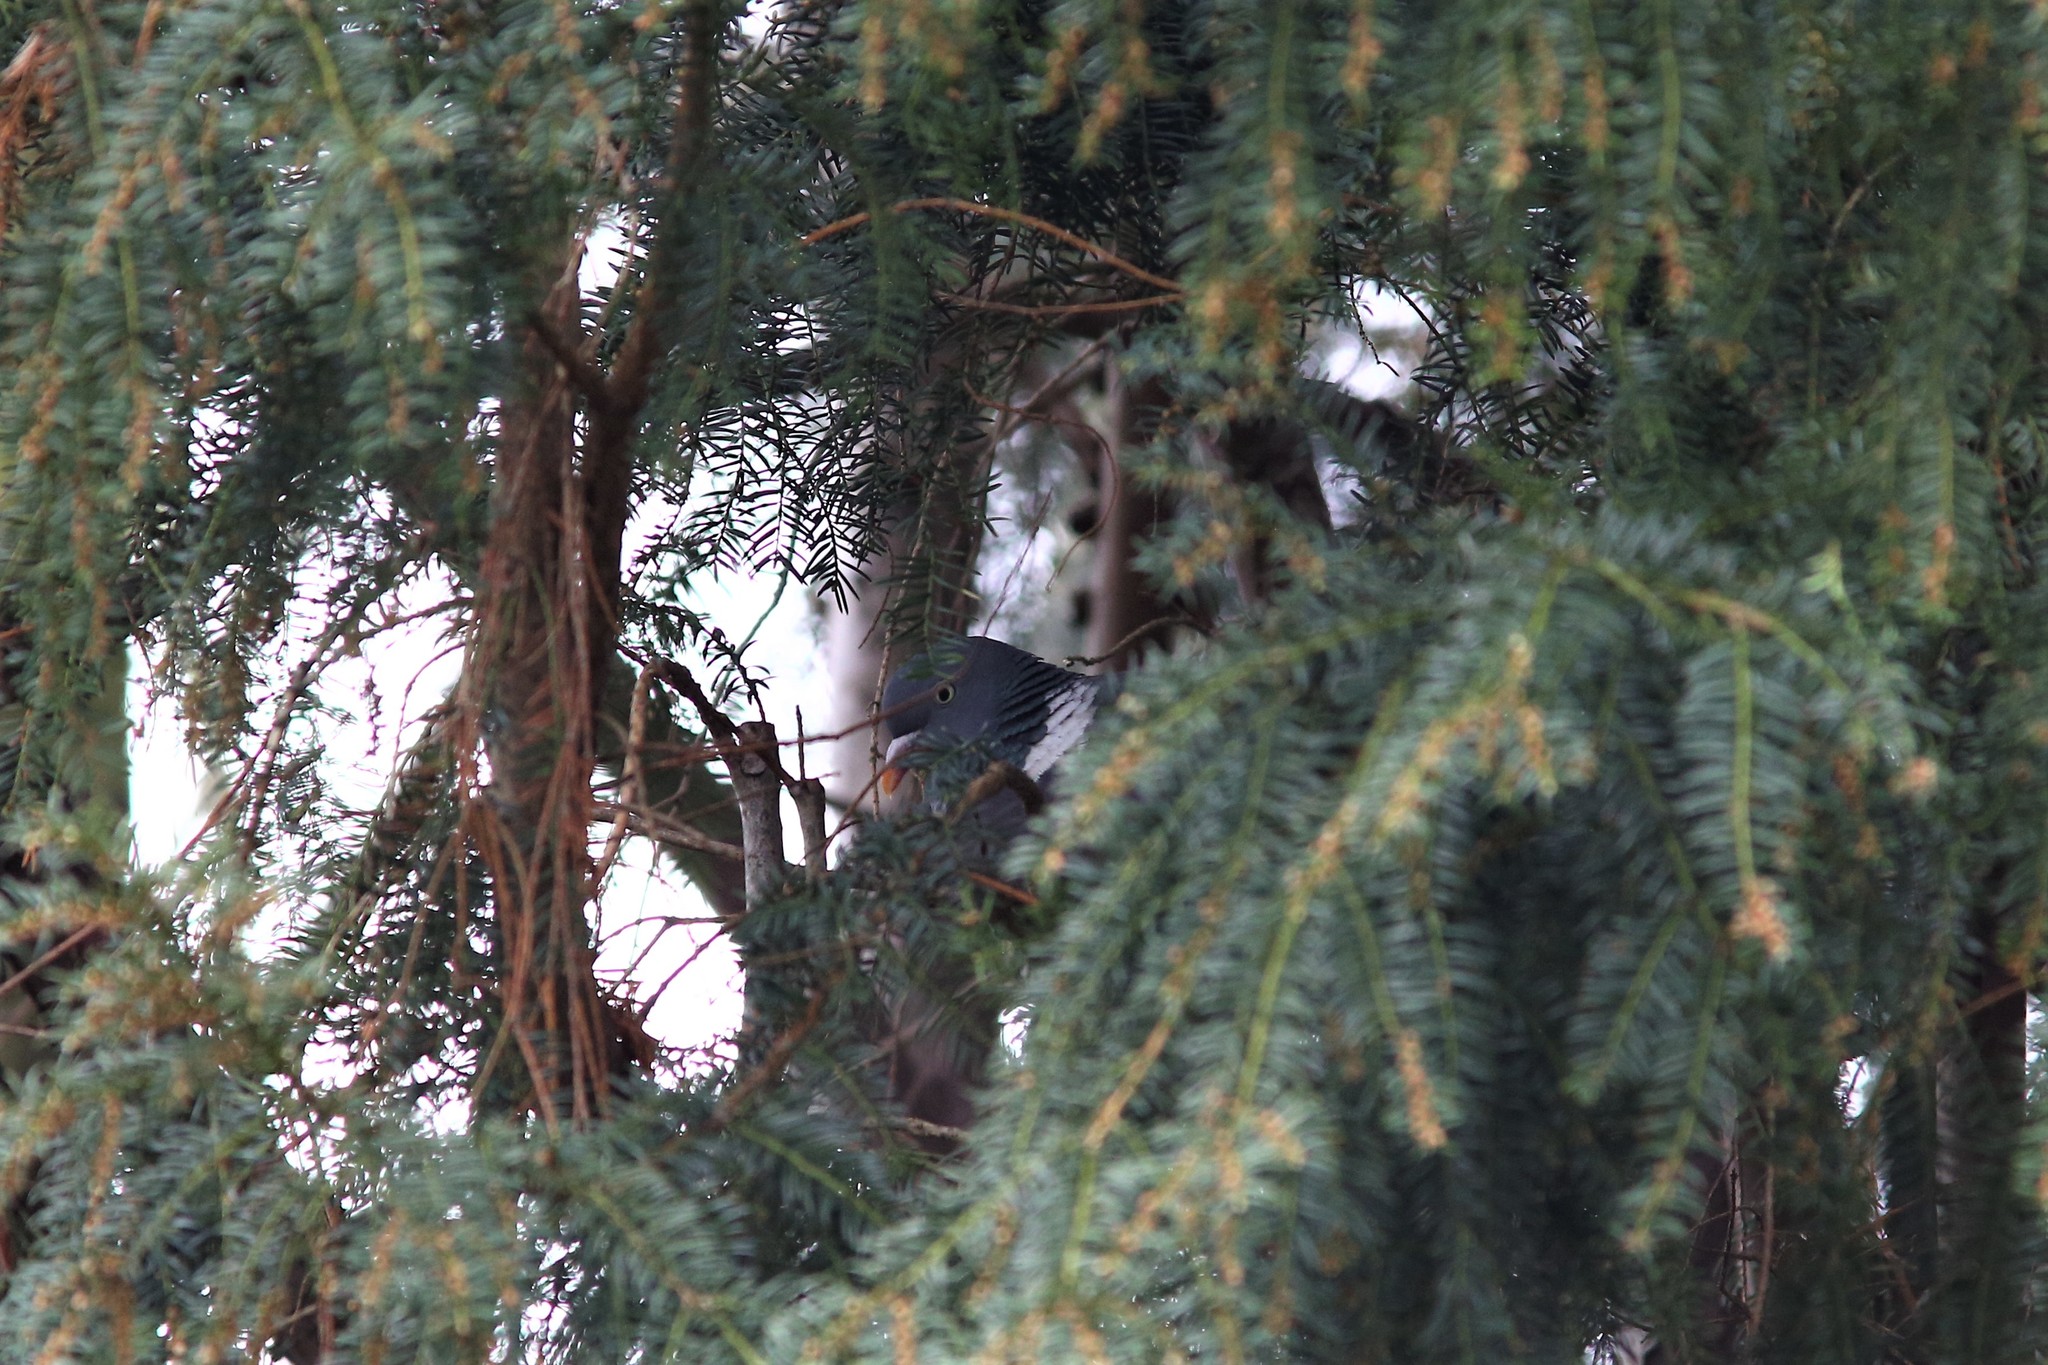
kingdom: Animalia
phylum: Chordata
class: Aves
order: Columbiformes
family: Columbidae
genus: Columba
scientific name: Columba palumbus
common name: Common wood pigeon
